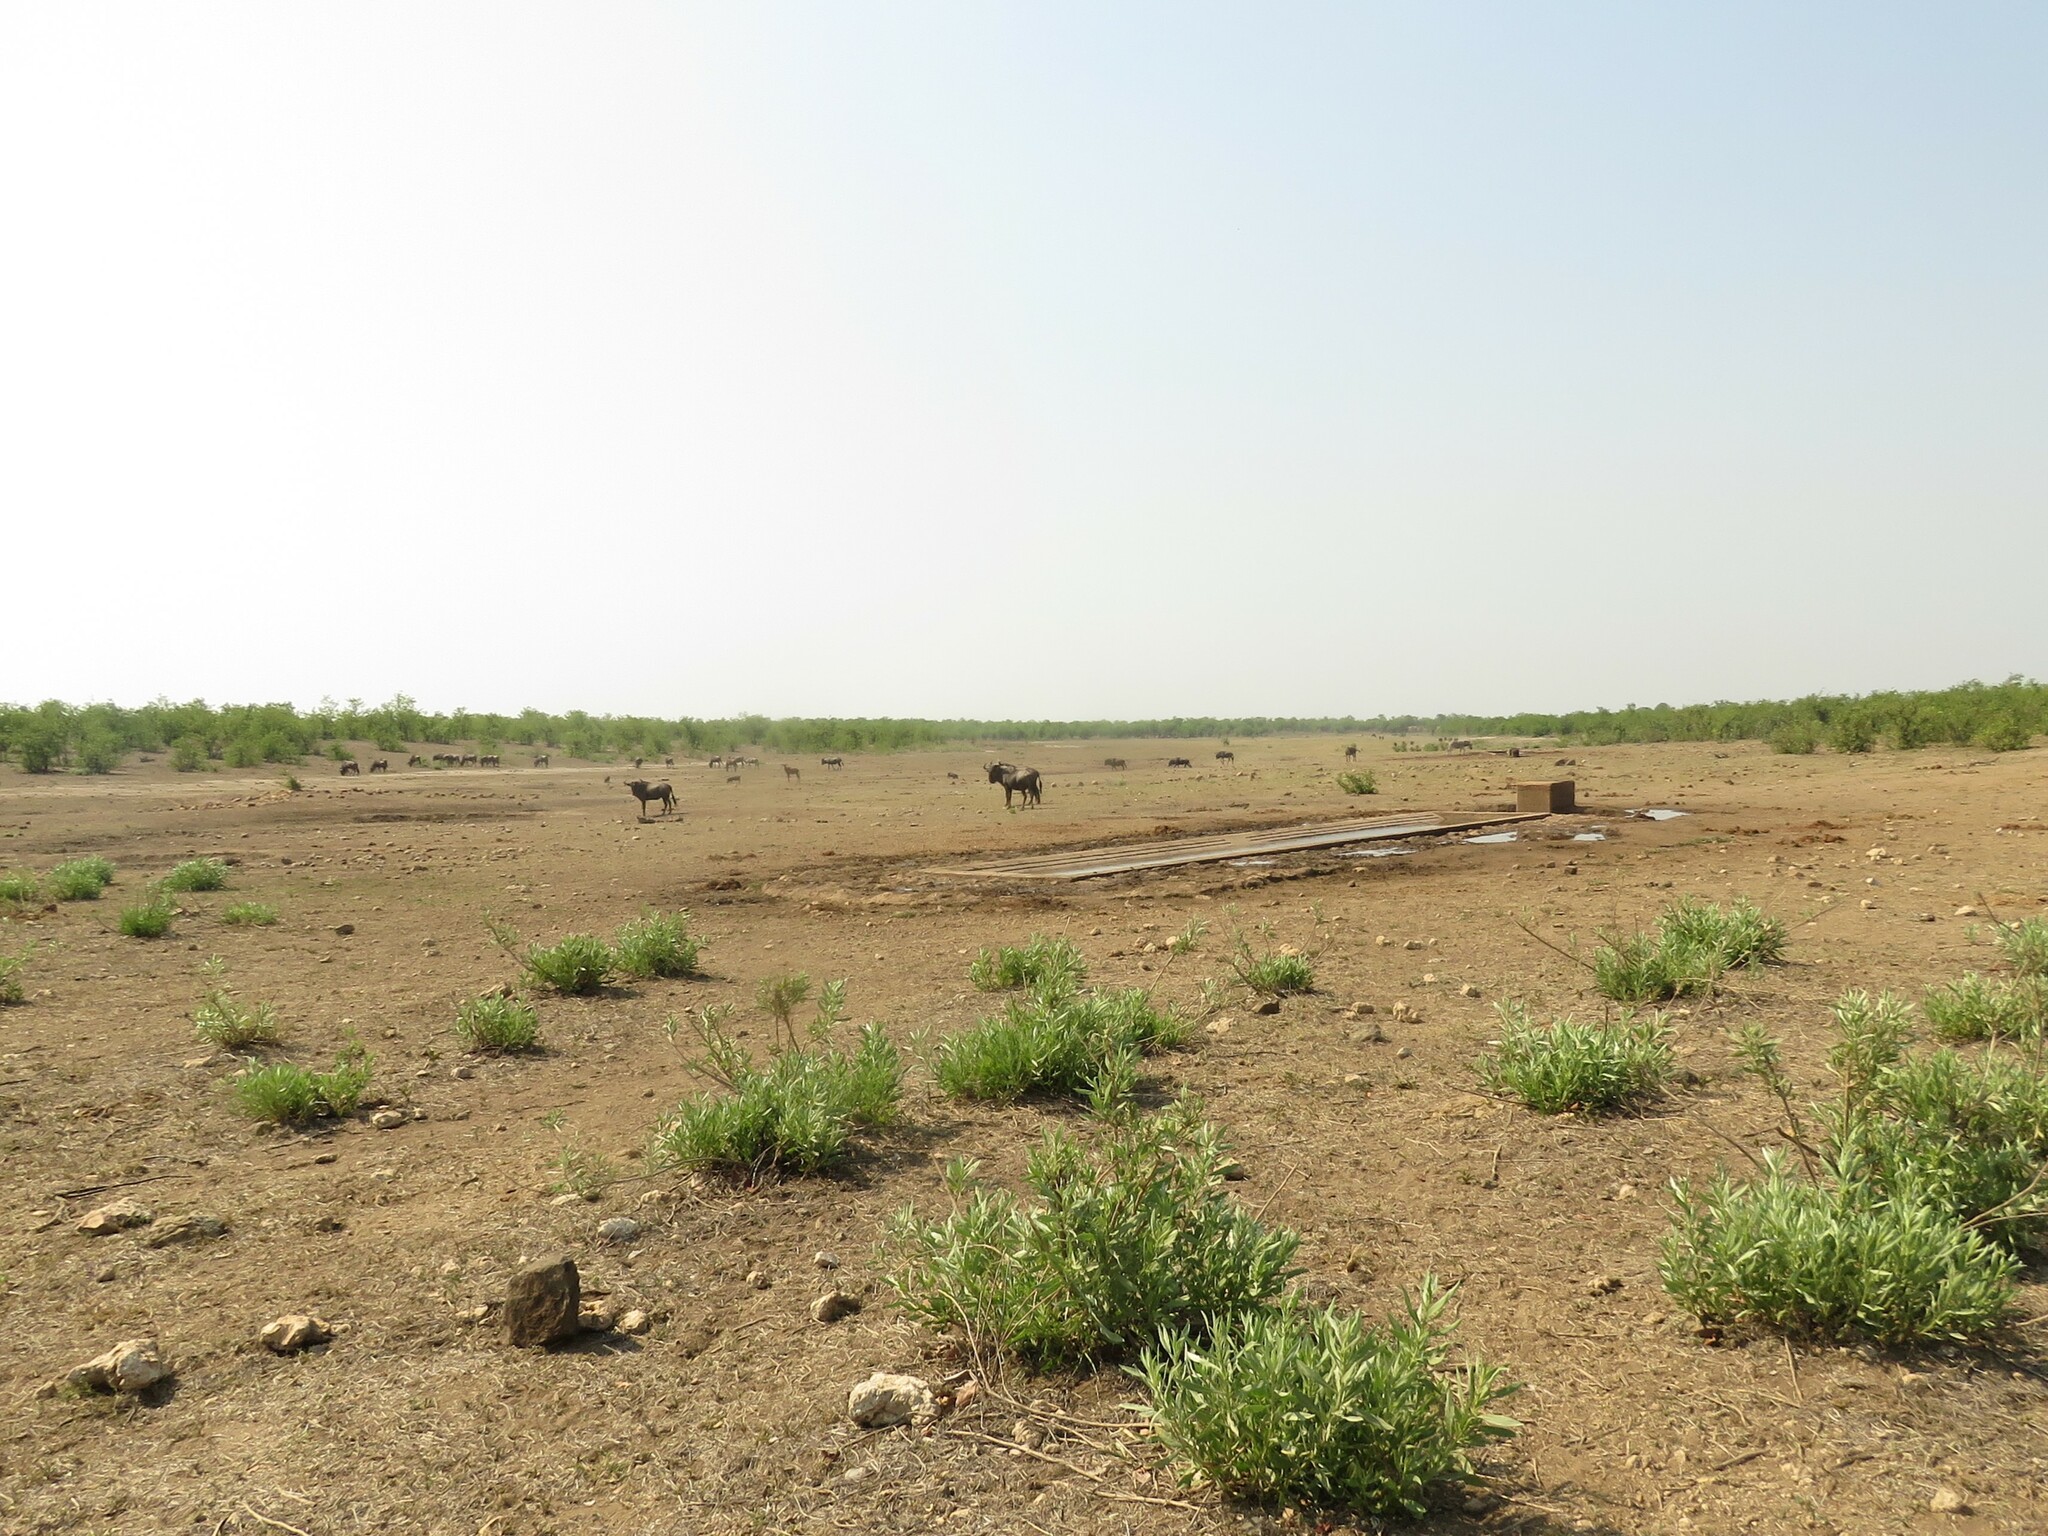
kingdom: Animalia
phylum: Chordata
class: Mammalia
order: Artiodactyla
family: Bovidae
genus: Connochaetes
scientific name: Connochaetes taurinus
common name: Blue wildebeest
